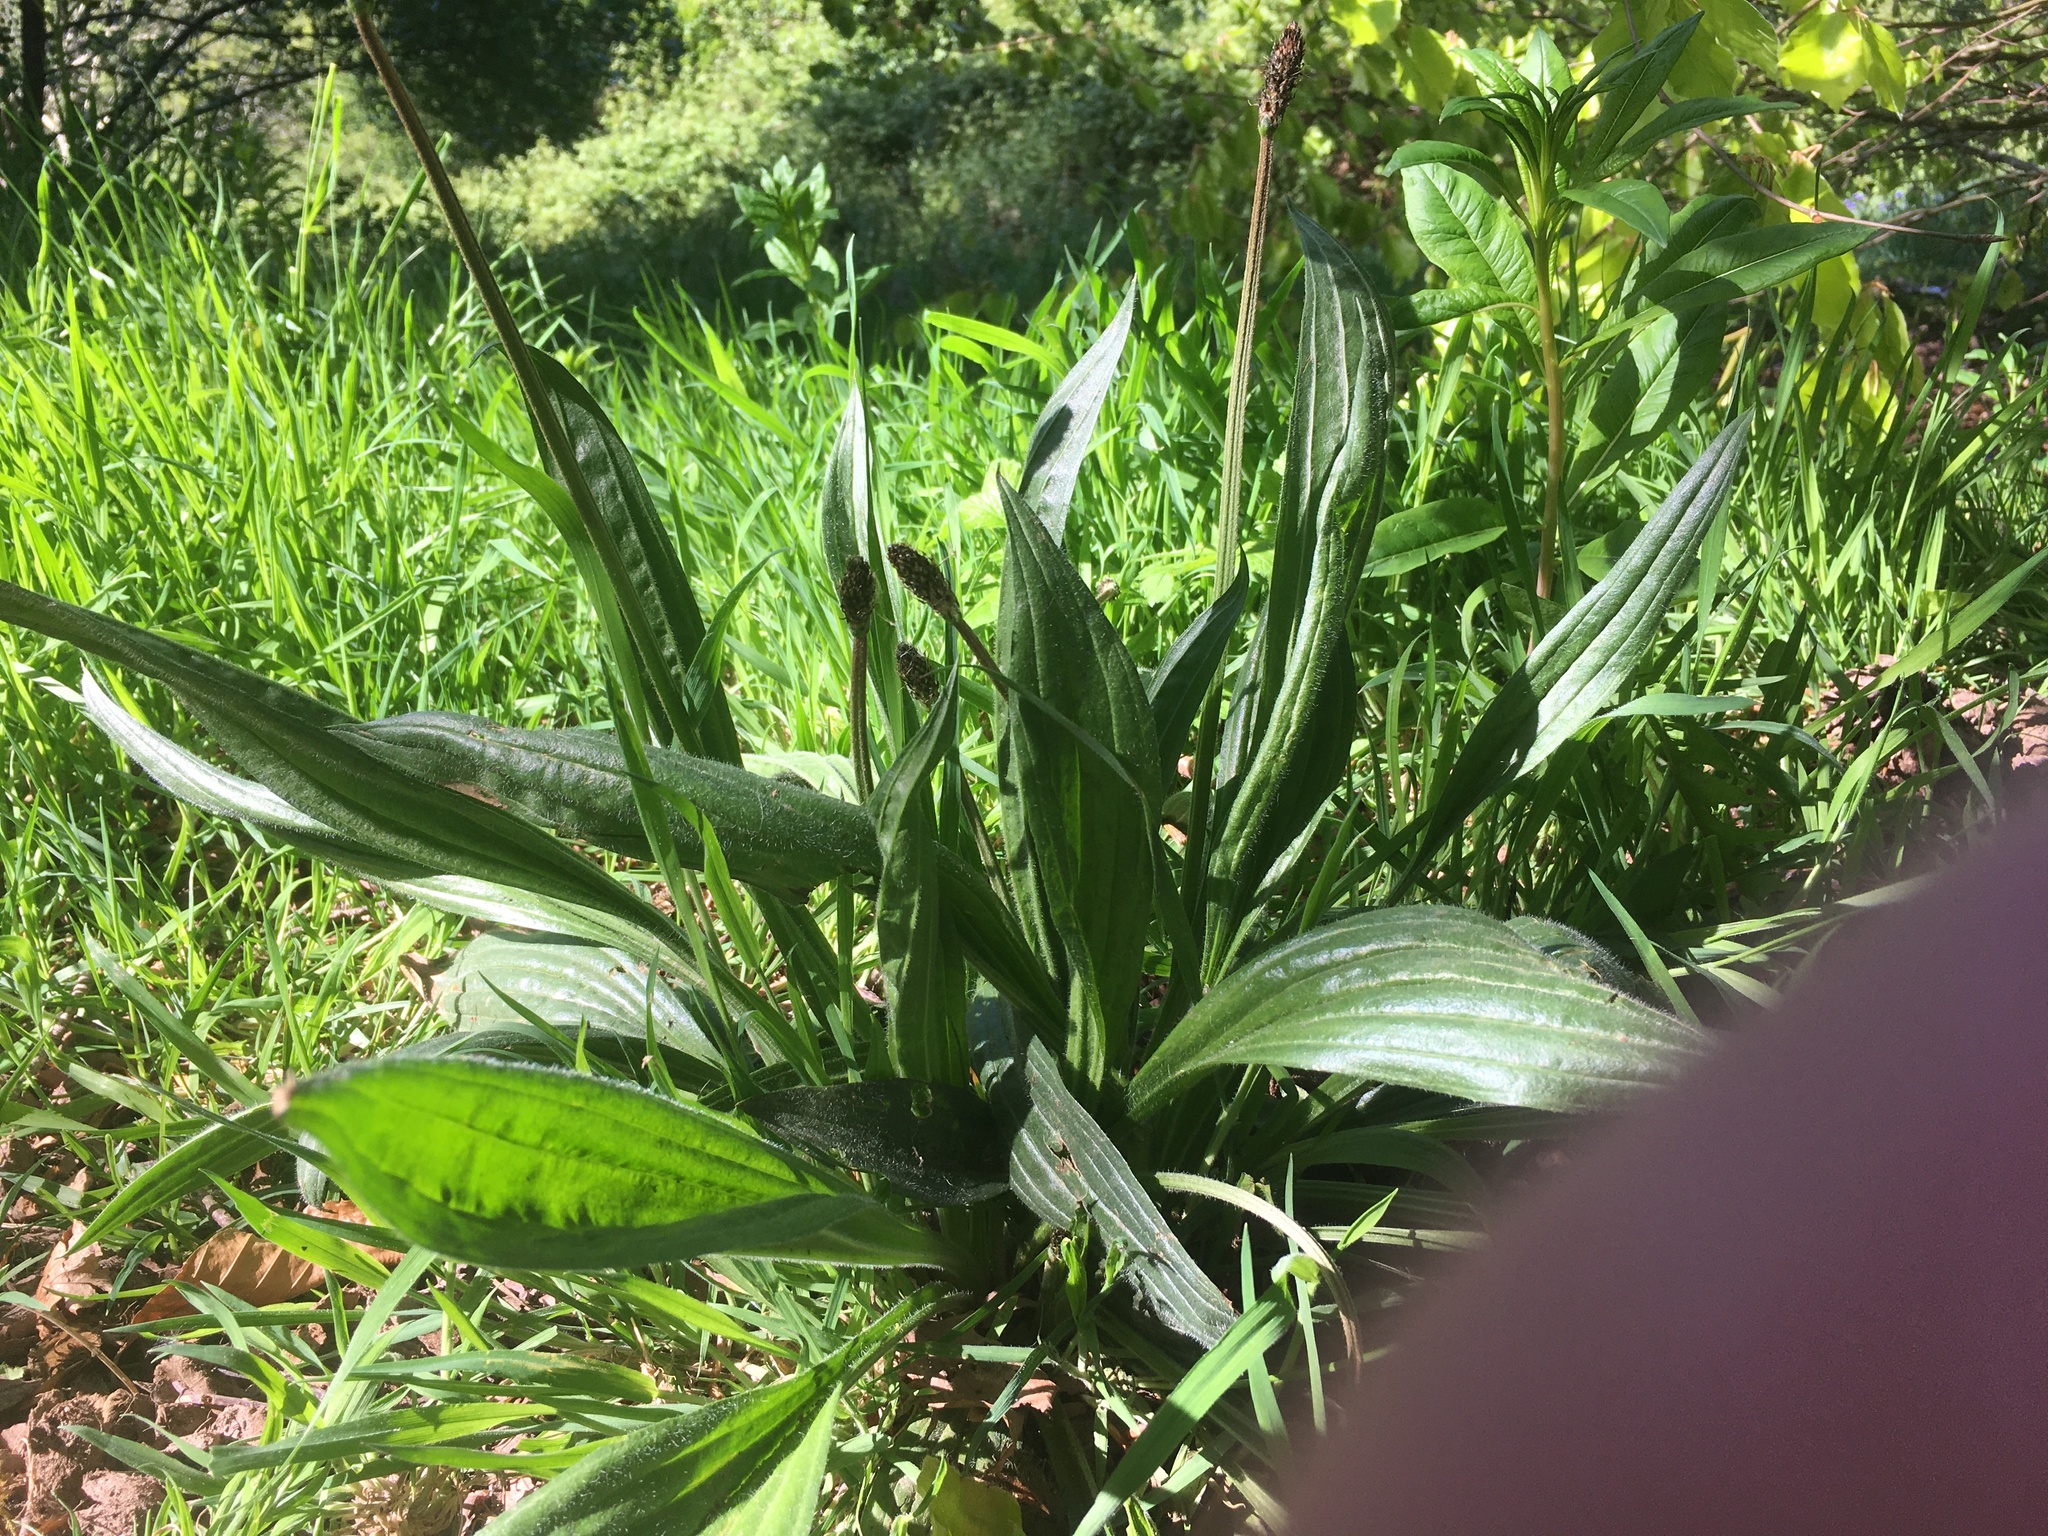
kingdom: Plantae
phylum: Tracheophyta
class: Magnoliopsida
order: Lamiales
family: Plantaginaceae
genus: Plantago
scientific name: Plantago lanceolata
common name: Ribwort plantain
